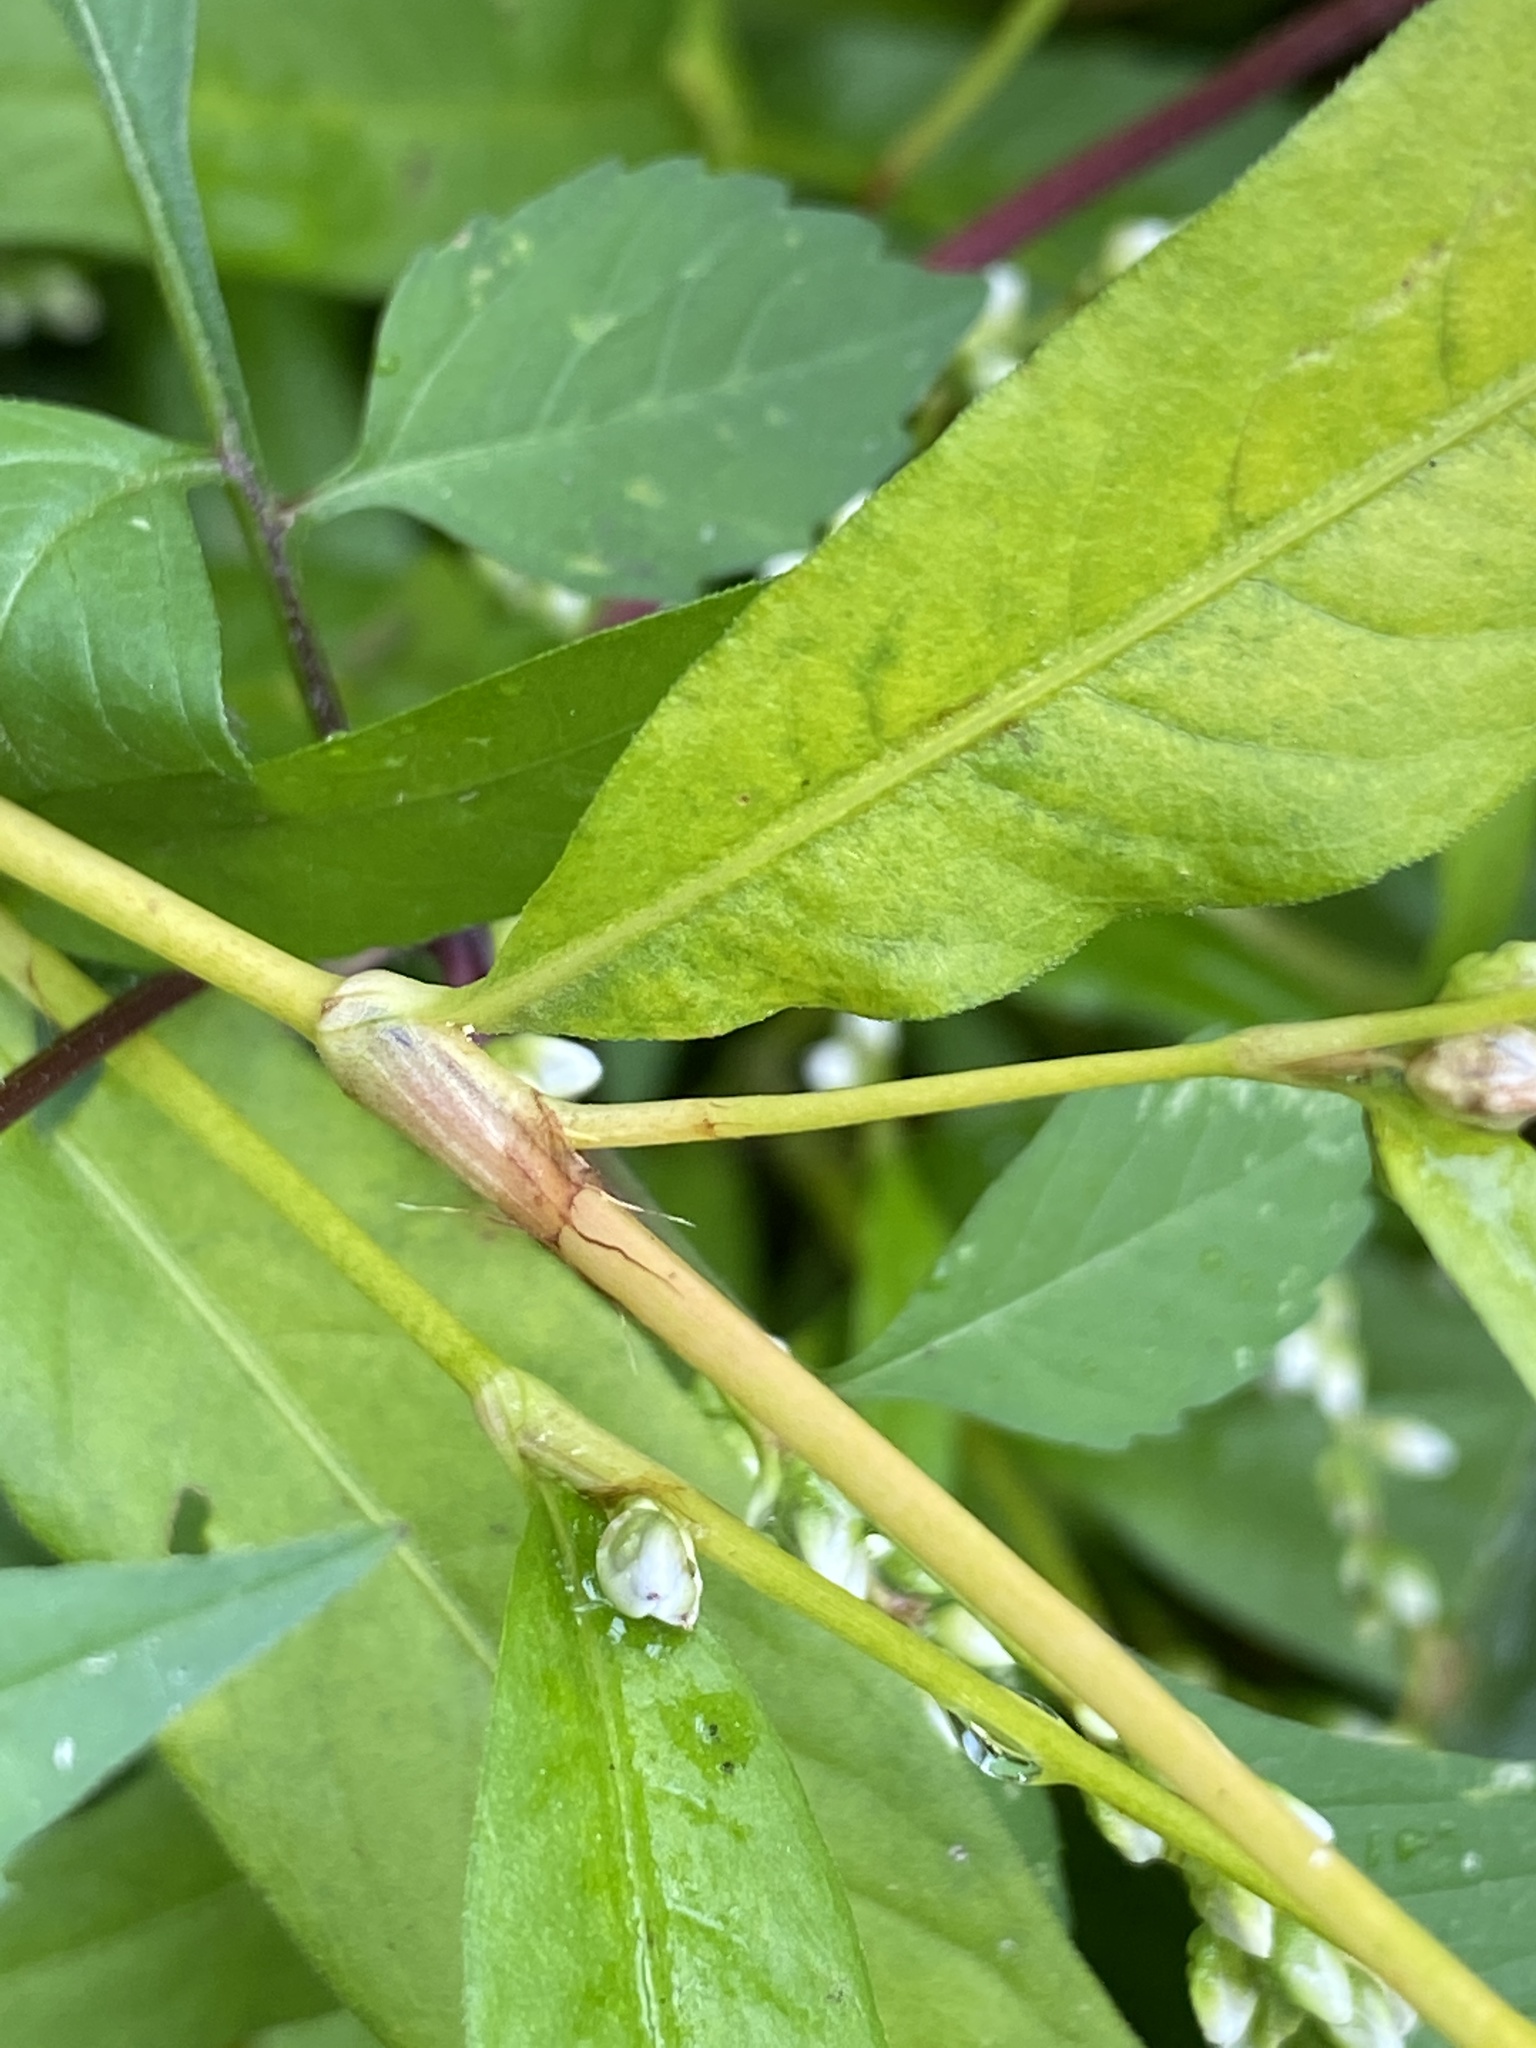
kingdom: Plantae
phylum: Tracheophyta
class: Magnoliopsida
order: Caryophyllales
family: Polygonaceae
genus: Persicaria
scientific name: Persicaria punctata
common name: Dotted smartweed
